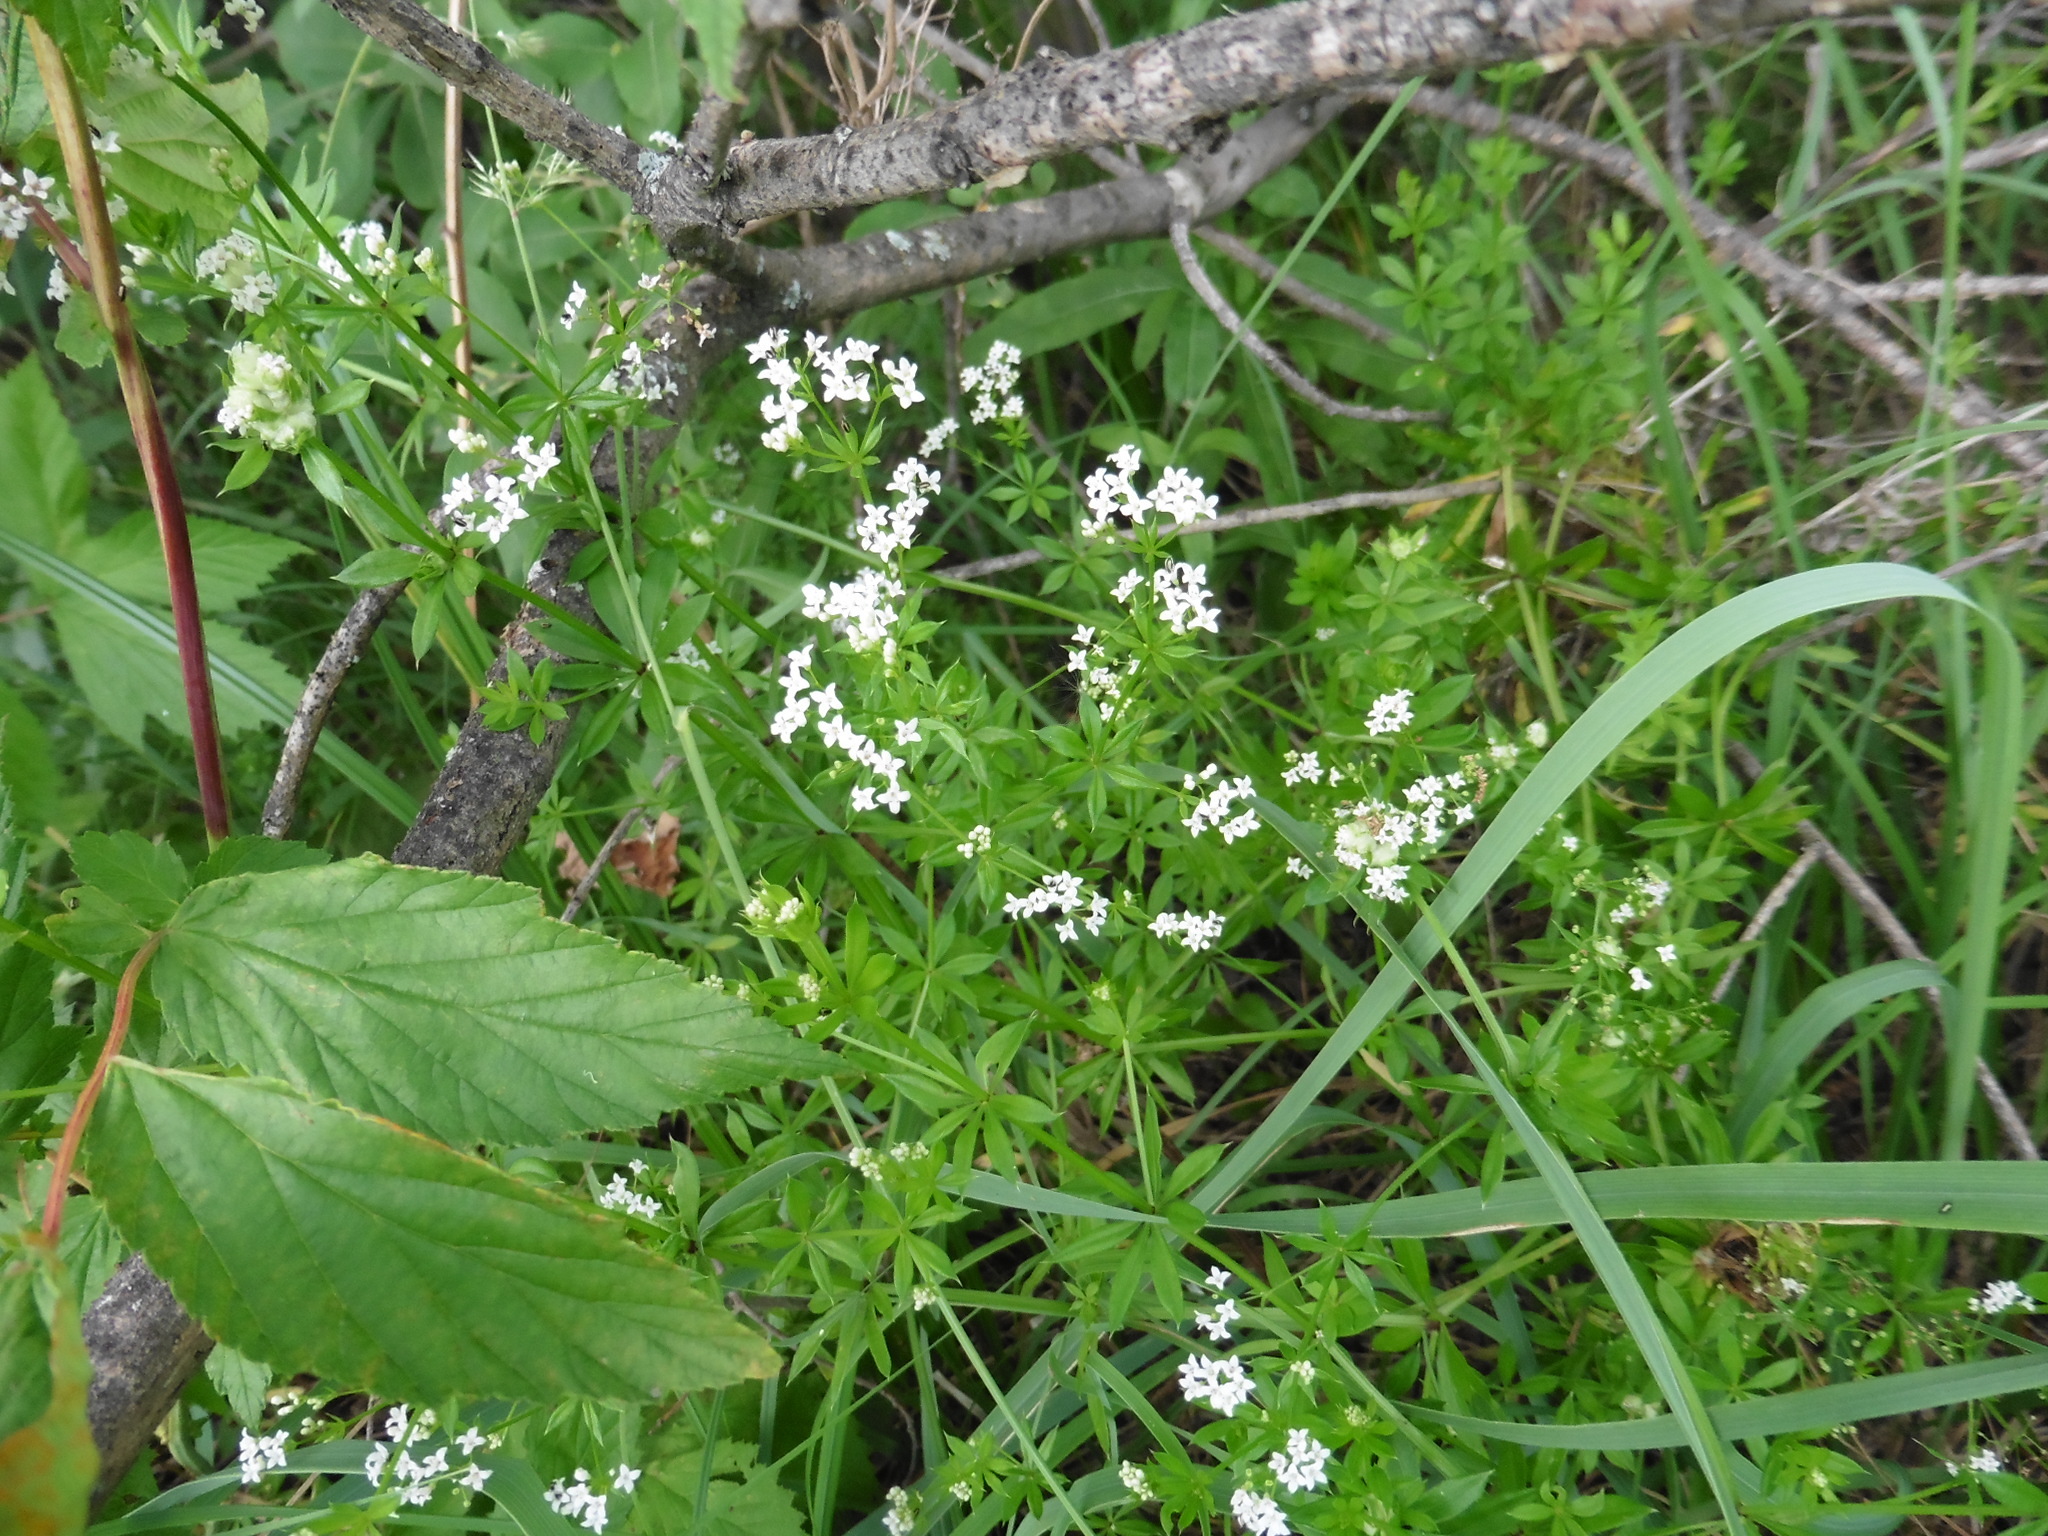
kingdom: Plantae
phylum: Tracheophyta
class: Magnoliopsida
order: Gentianales
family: Rubiaceae
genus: Galium
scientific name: Galium rivale
